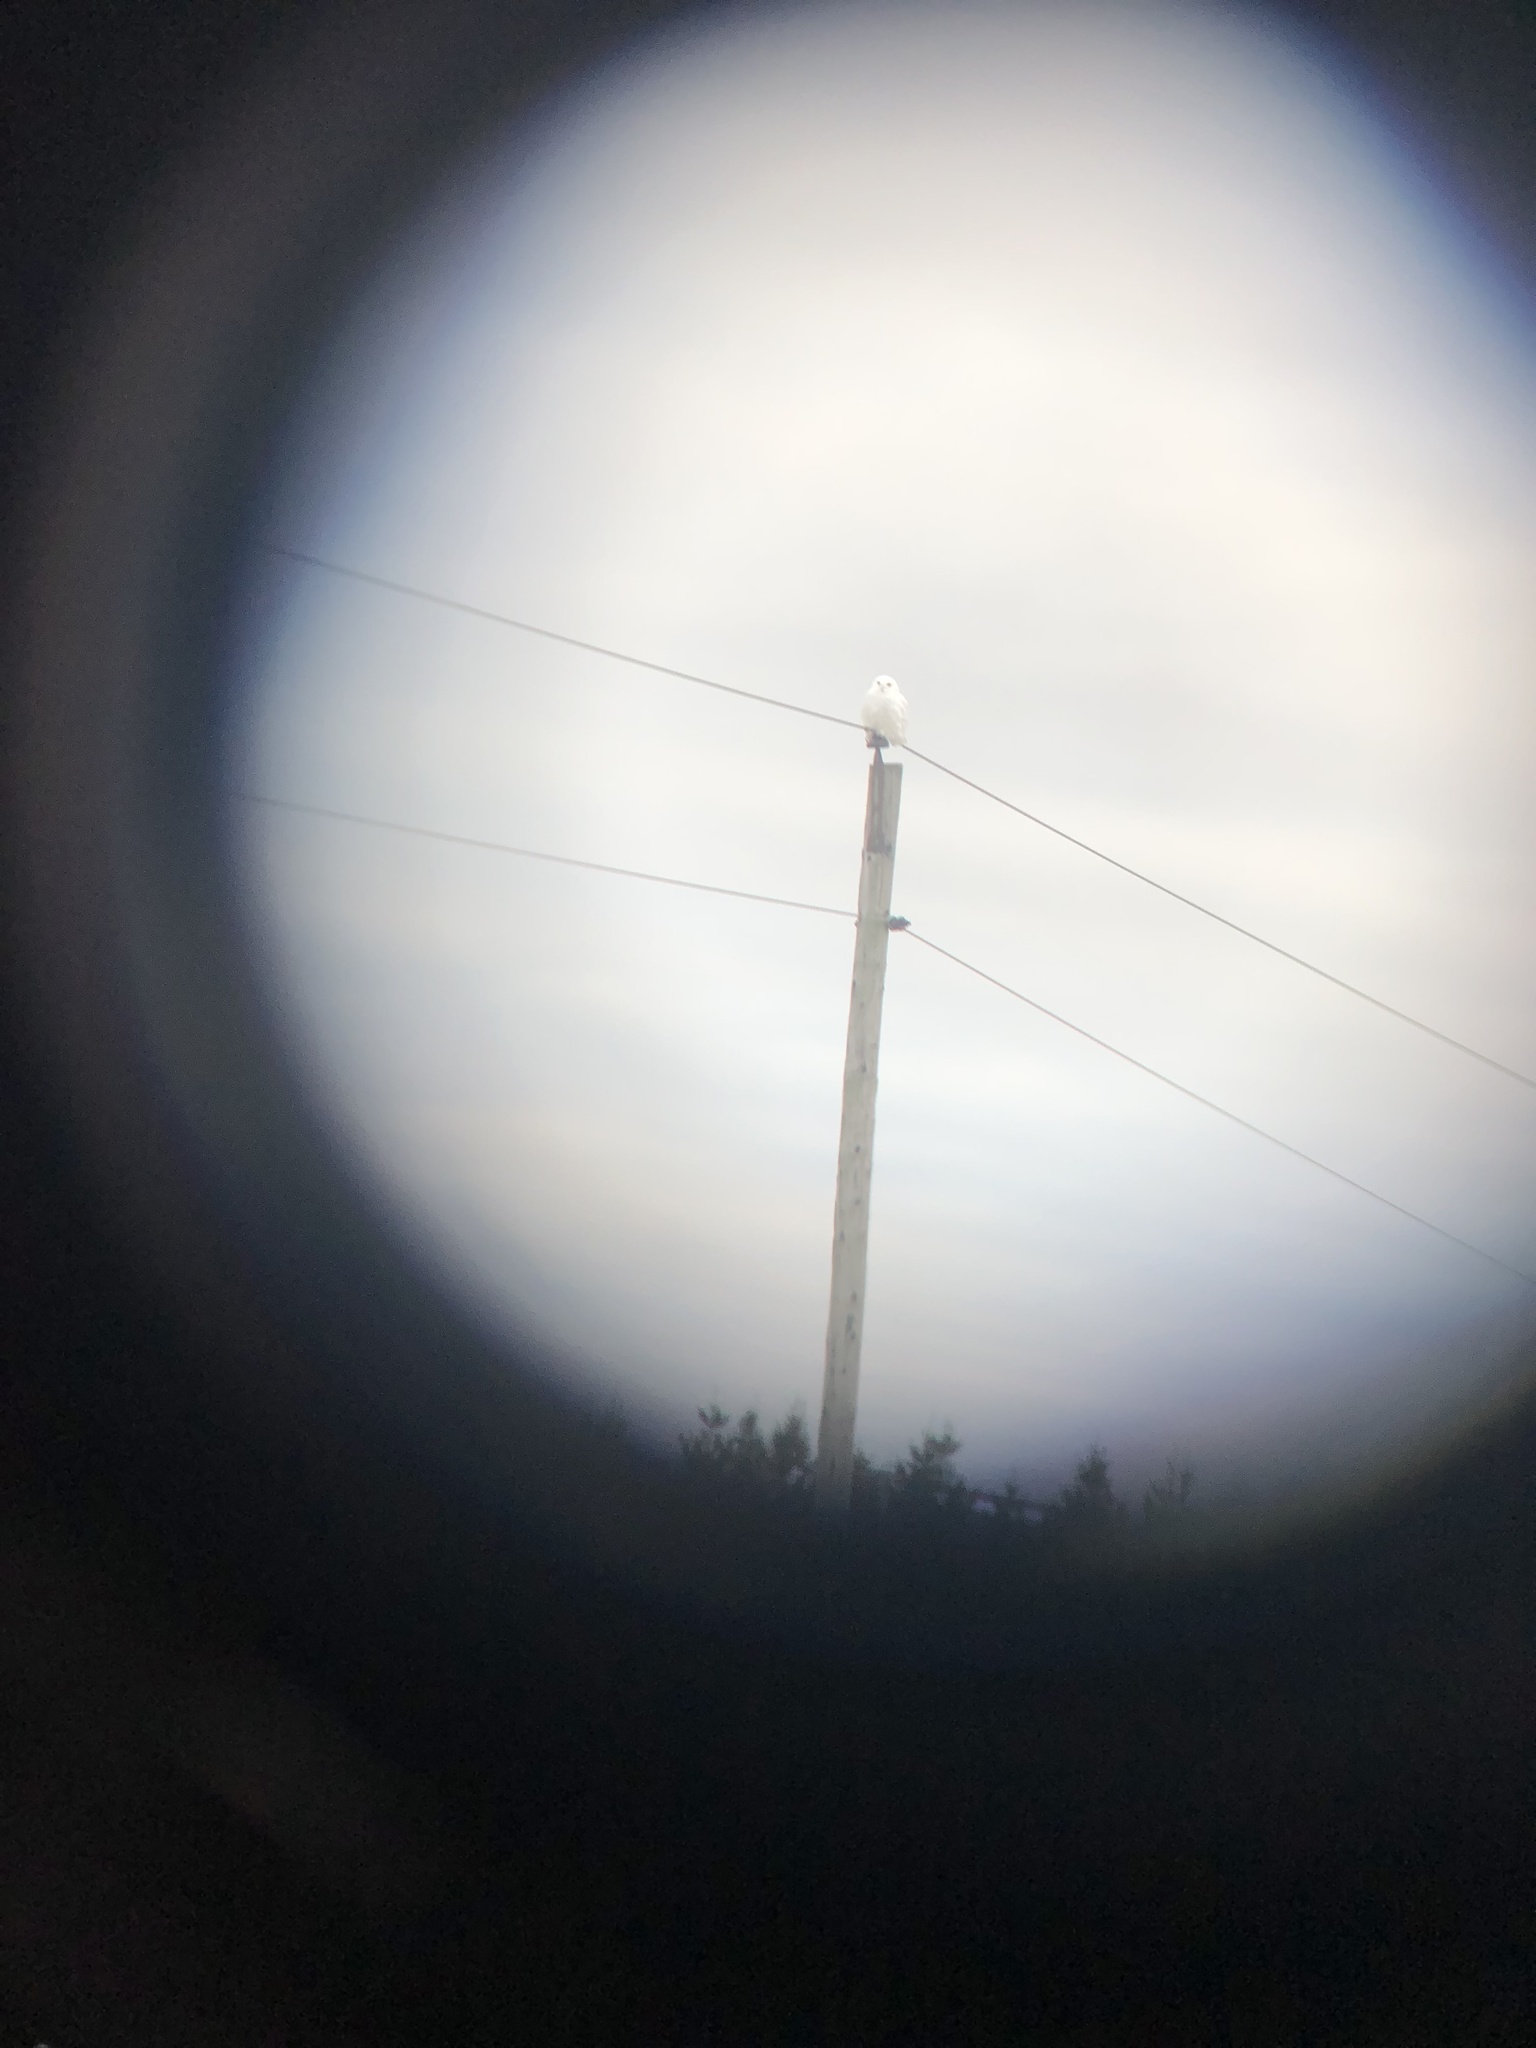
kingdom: Animalia
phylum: Chordata
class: Aves
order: Strigiformes
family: Strigidae
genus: Bubo
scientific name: Bubo scandiacus
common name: Snowy owl
